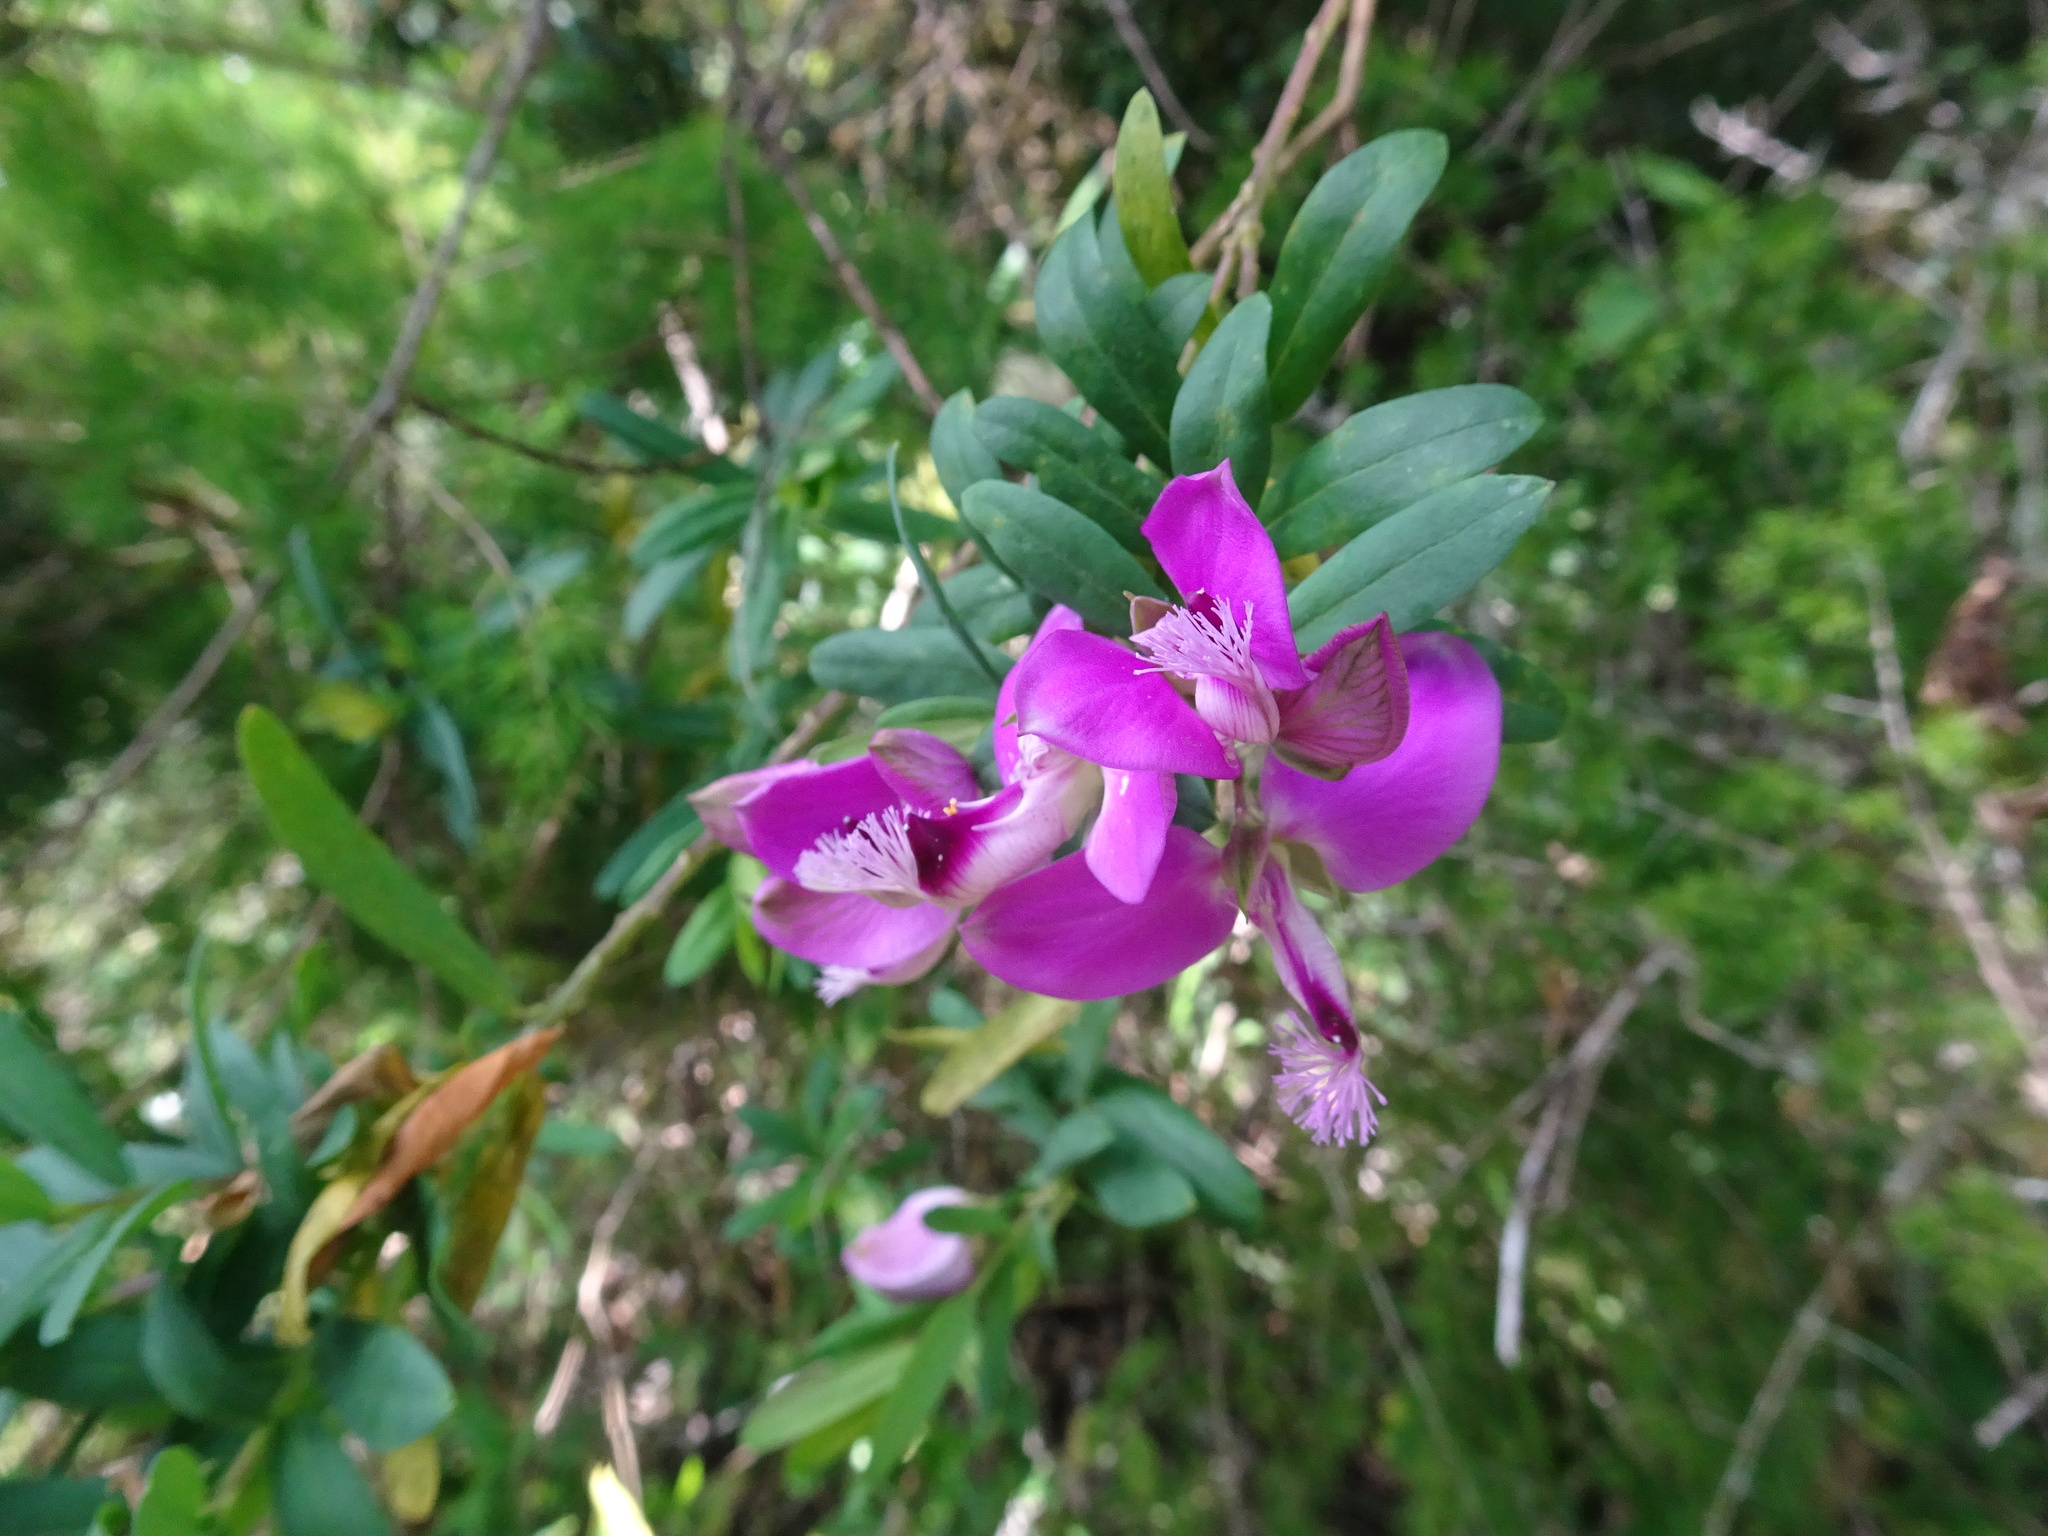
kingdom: Plantae
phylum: Tracheophyta
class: Magnoliopsida
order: Fabales
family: Polygalaceae
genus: Polygala
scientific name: Polygala myrtifolia
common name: Myrtle-leaf milkwort
